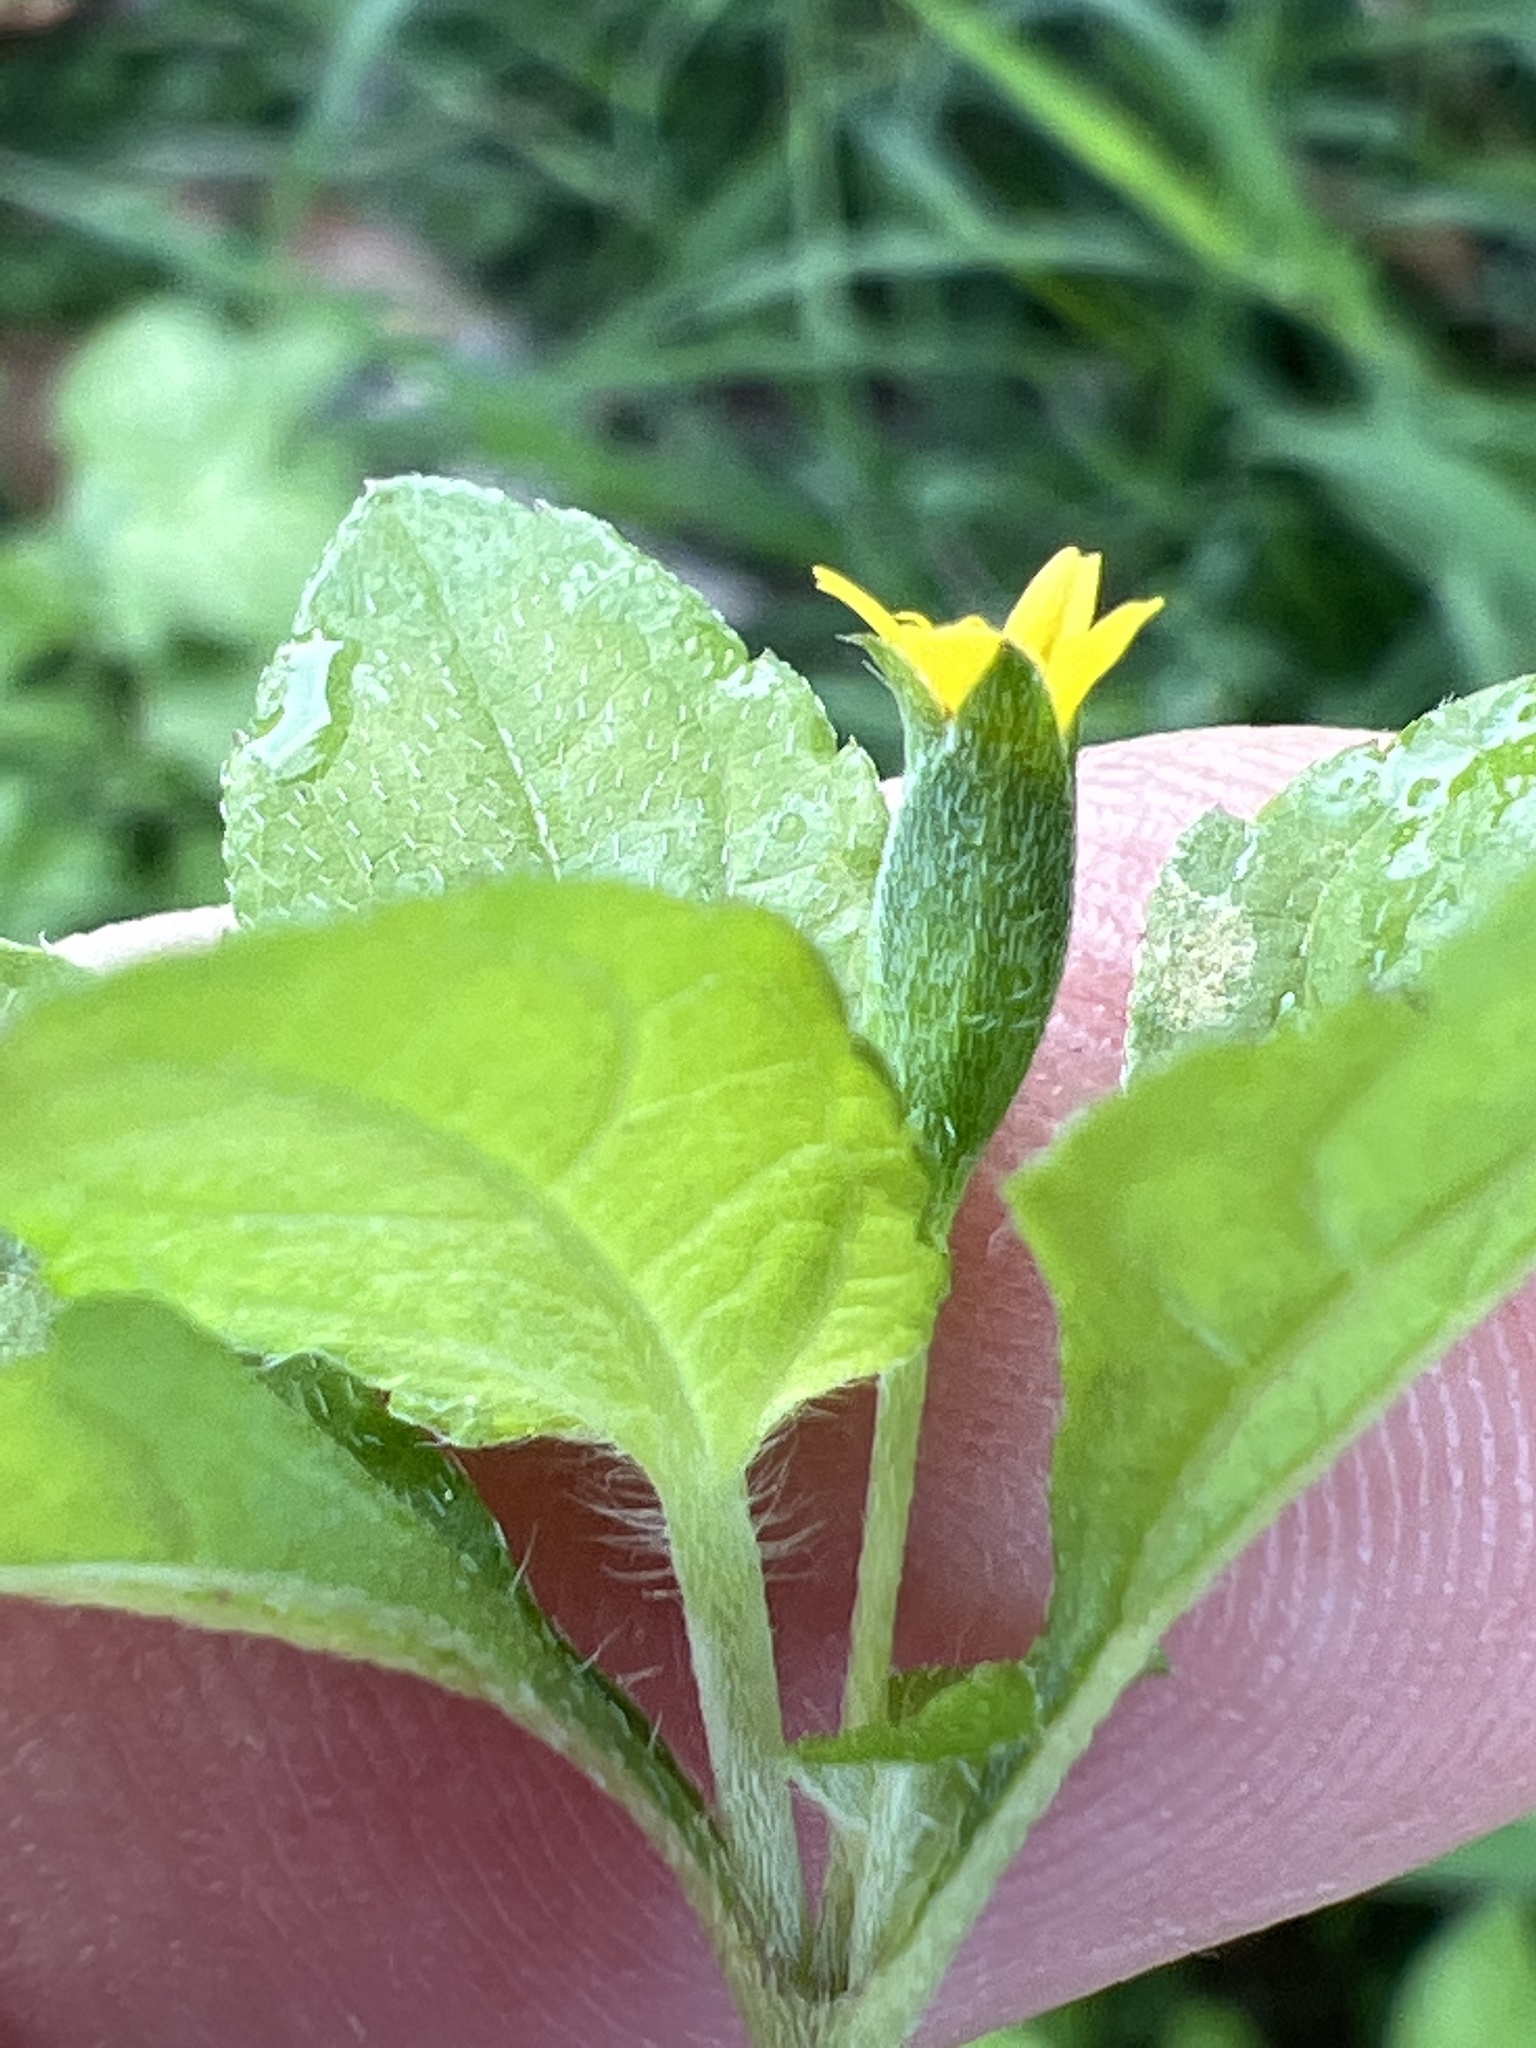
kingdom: Plantae
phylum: Tracheophyta
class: Magnoliopsida
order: Asterales
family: Asteraceae
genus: Calyptocarpus
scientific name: Calyptocarpus vialis
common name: Straggler daisy
